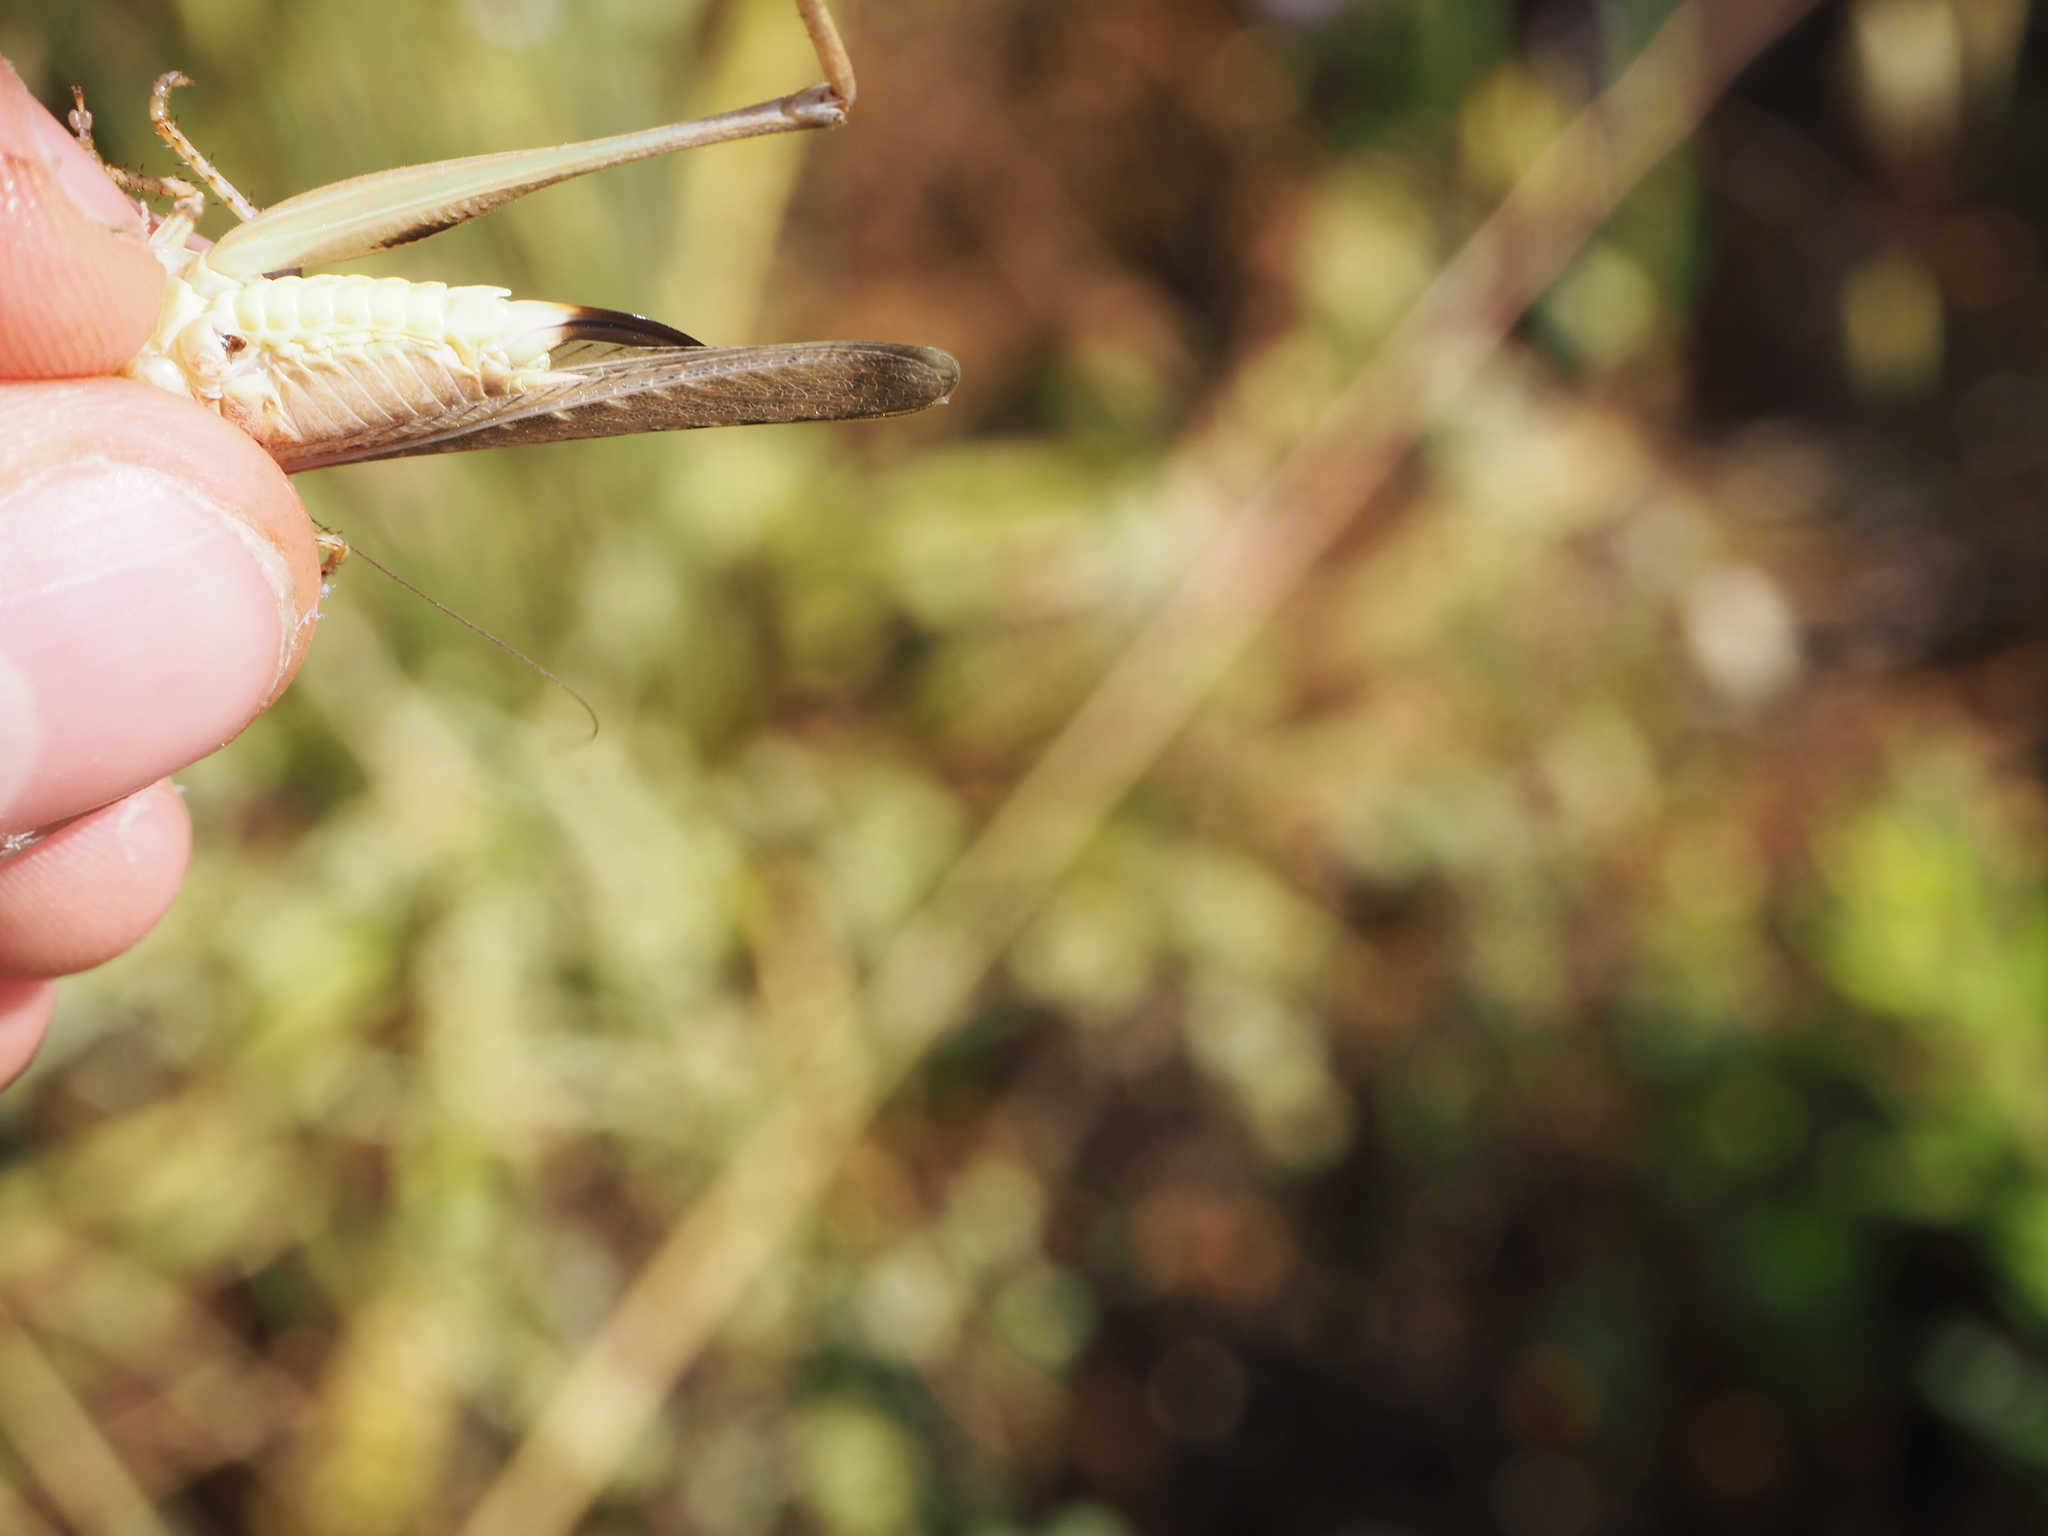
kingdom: Animalia
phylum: Arthropoda
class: Insecta
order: Orthoptera
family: Tettigoniidae
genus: Platycleis
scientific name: Platycleis grisea
